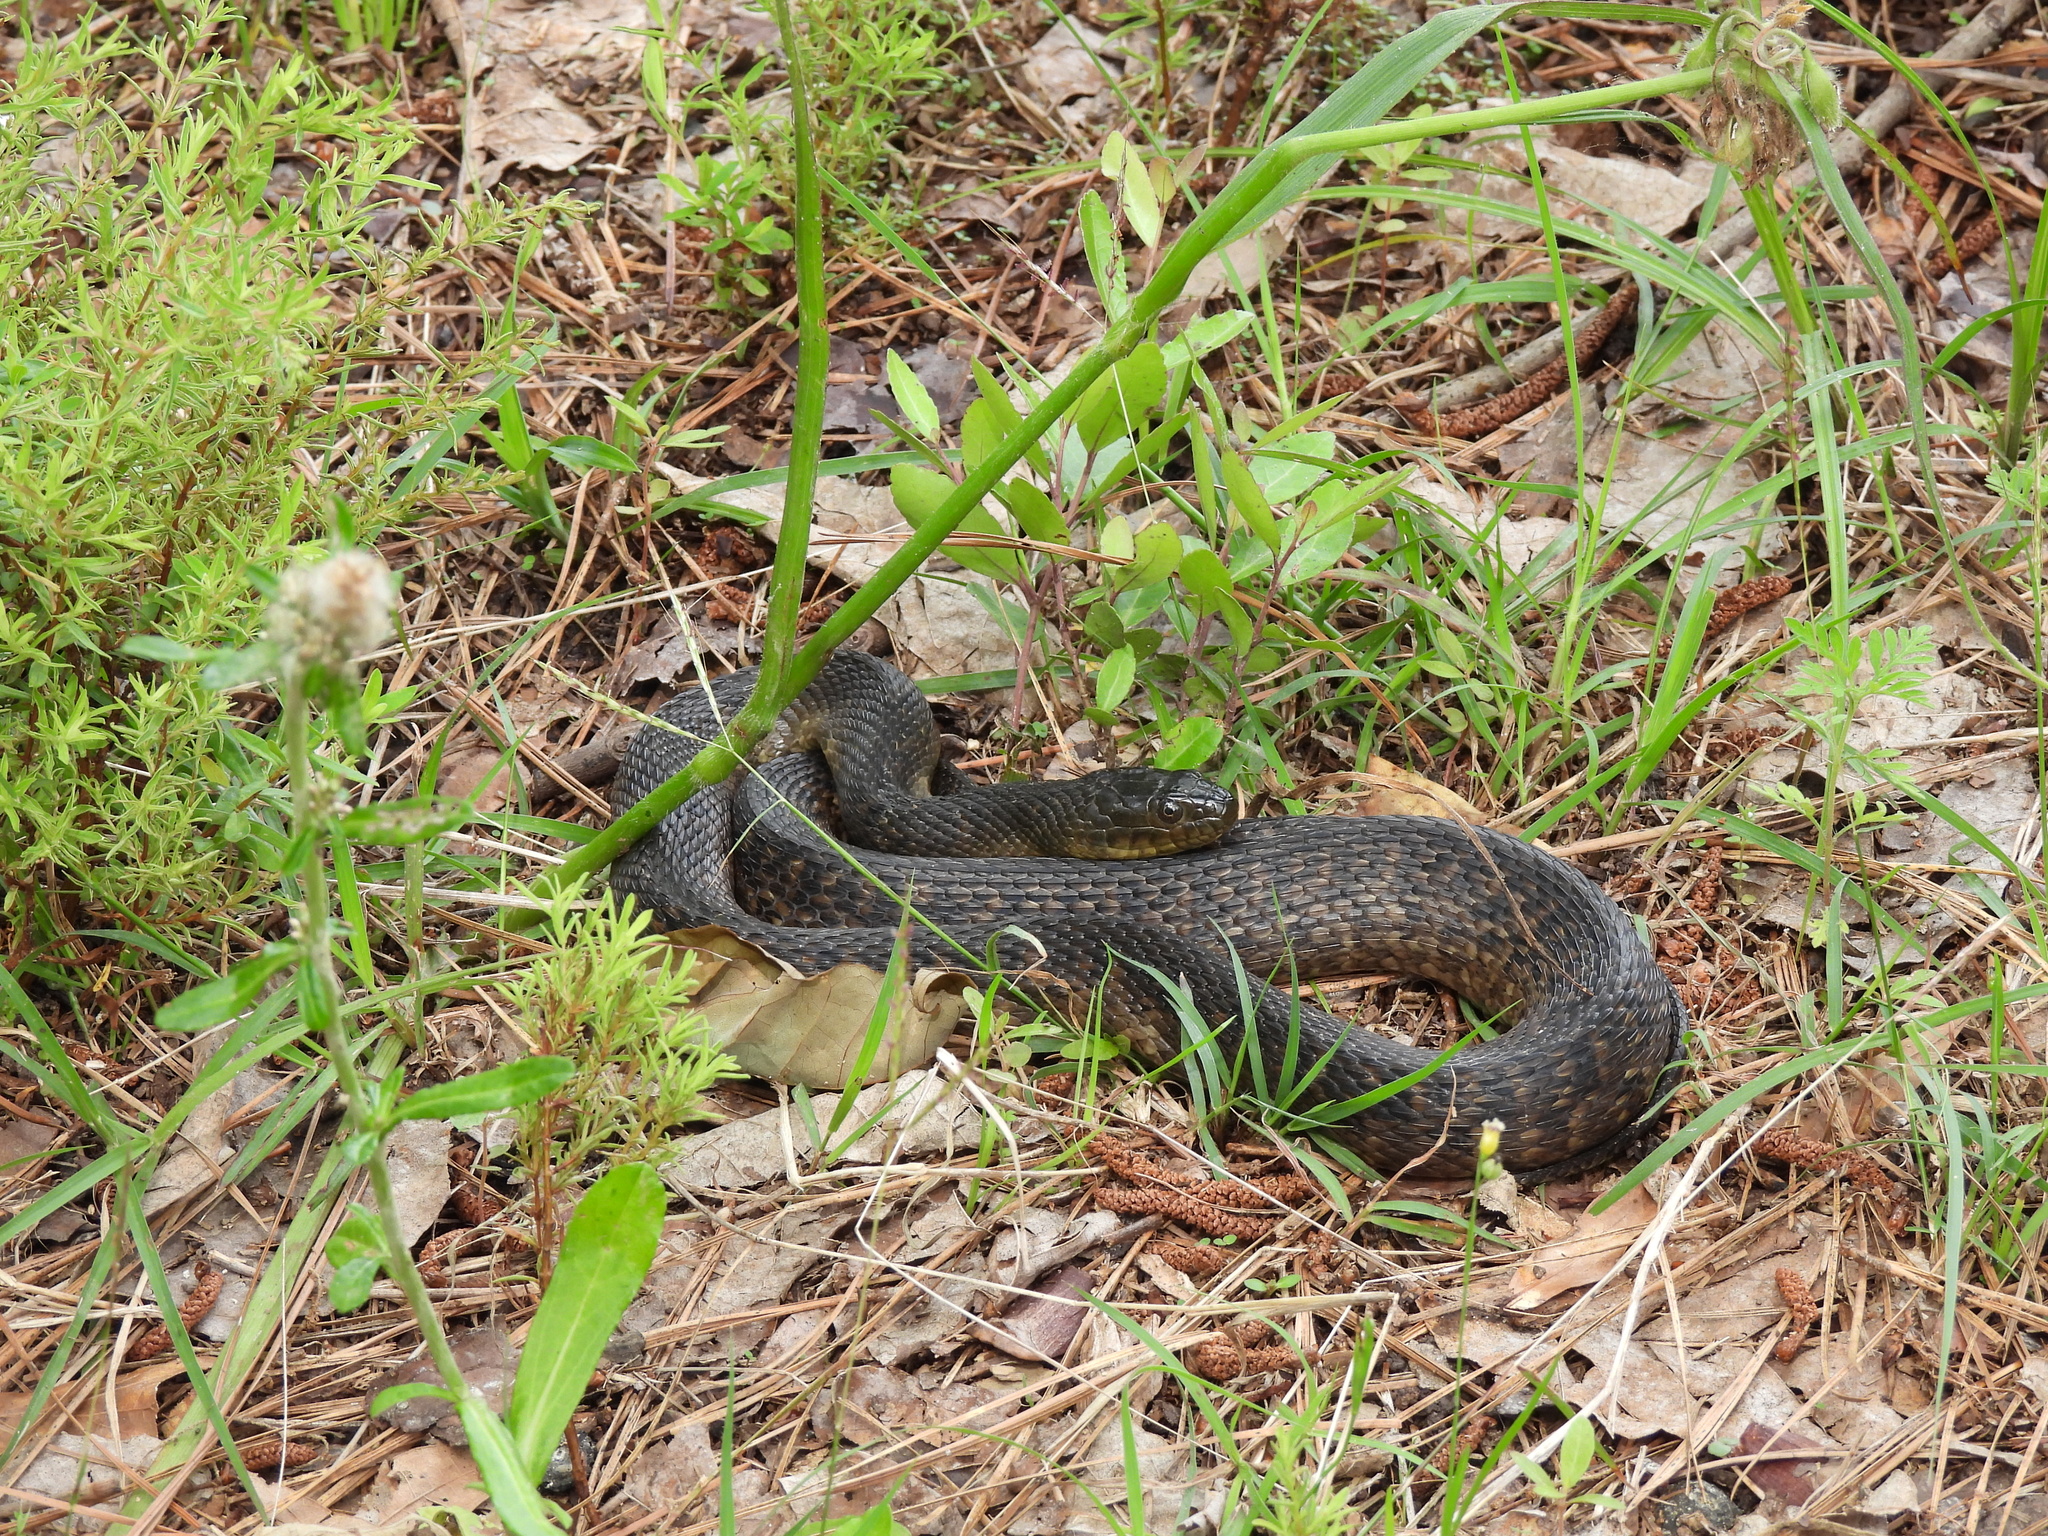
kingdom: Animalia
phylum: Chordata
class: Squamata
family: Colubridae
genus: Nerodia
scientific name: Nerodia cyclopion
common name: Mississippi green water snake
